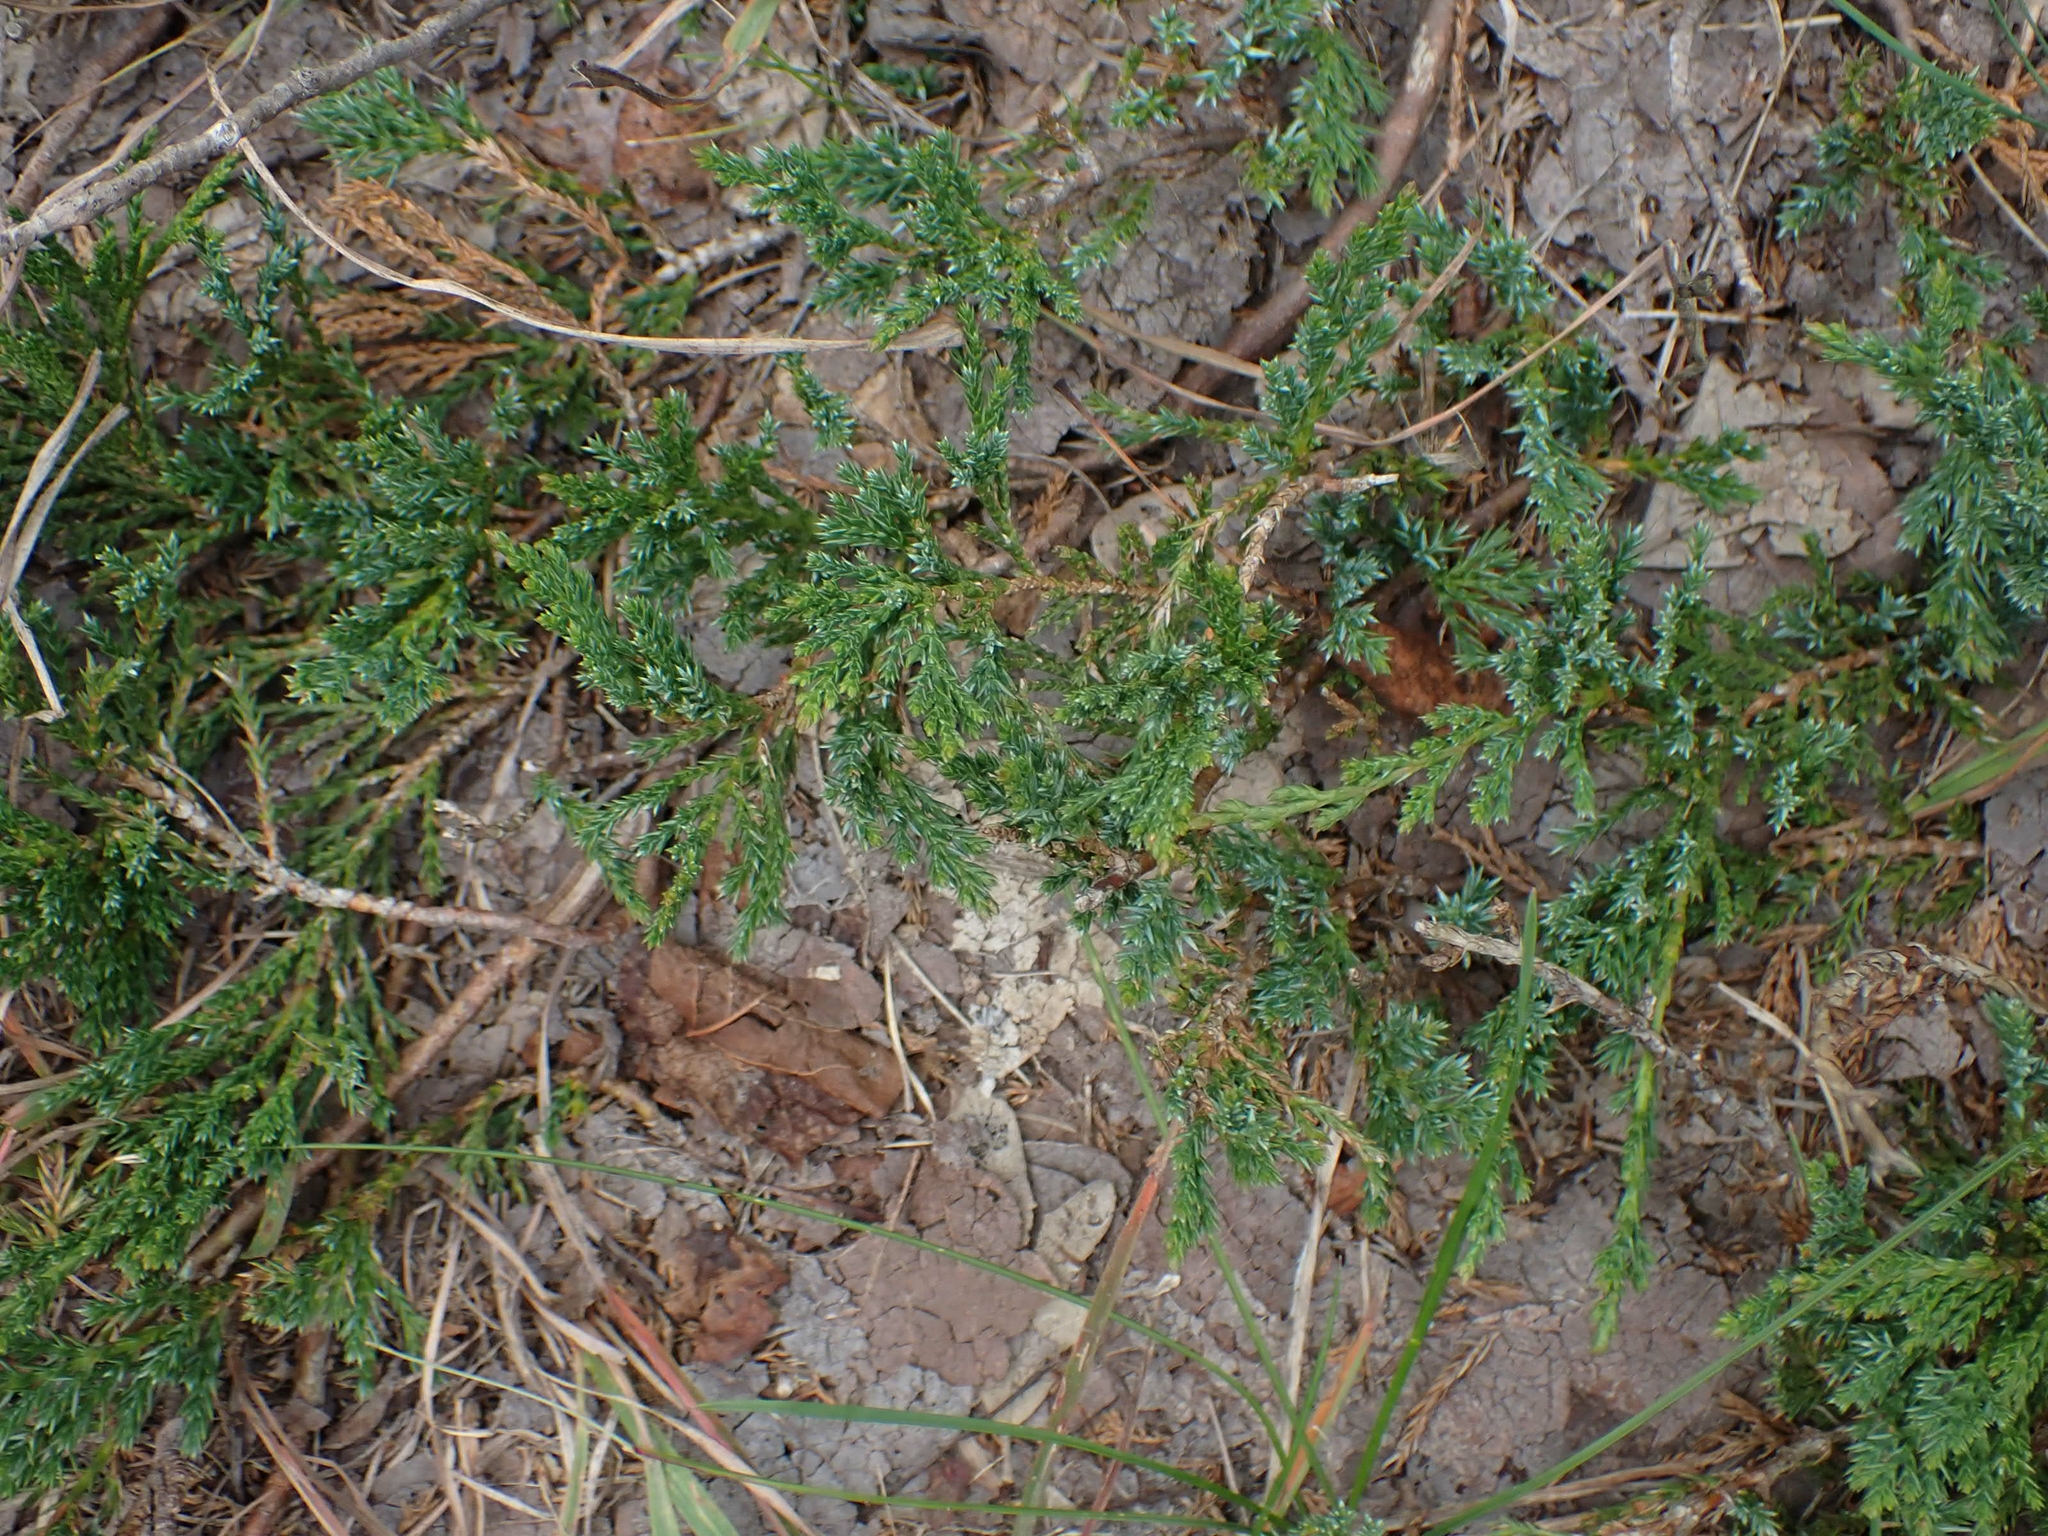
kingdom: Plantae
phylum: Tracheophyta
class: Pinopsida
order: Pinales
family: Cupressaceae
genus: Juniperus
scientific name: Juniperus horizontalis
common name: Creeping juniper
